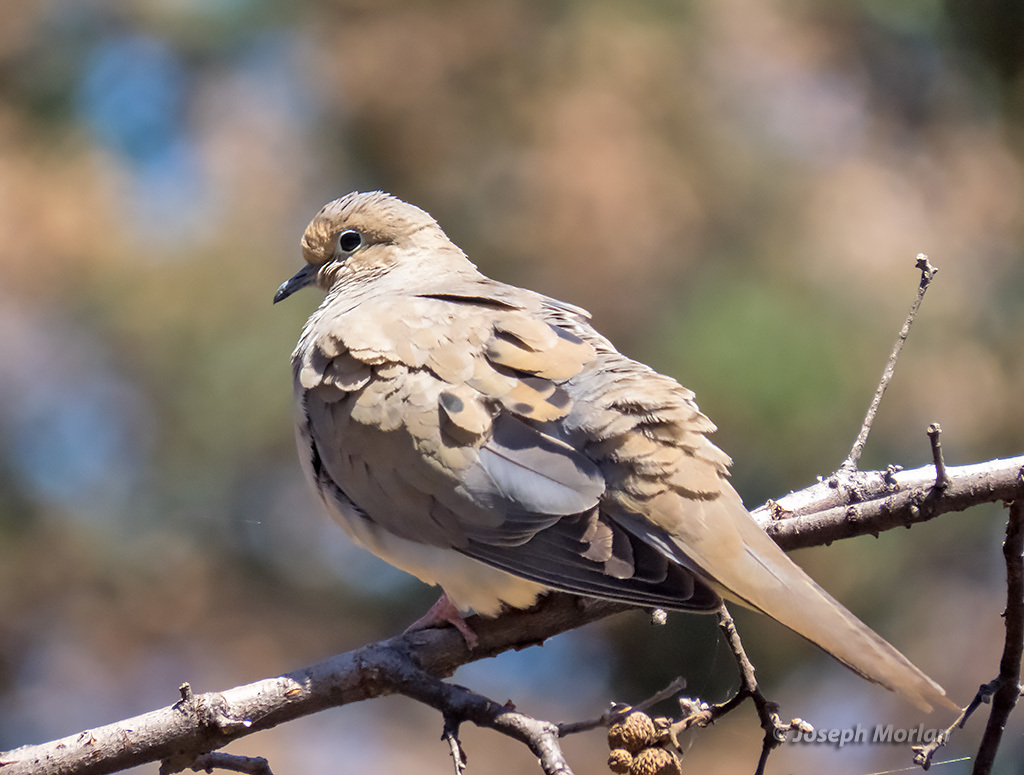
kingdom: Animalia
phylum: Chordata
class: Aves
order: Columbiformes
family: Columbidae
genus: Zenaida
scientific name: Zenaida macroura
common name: Mourning dove
